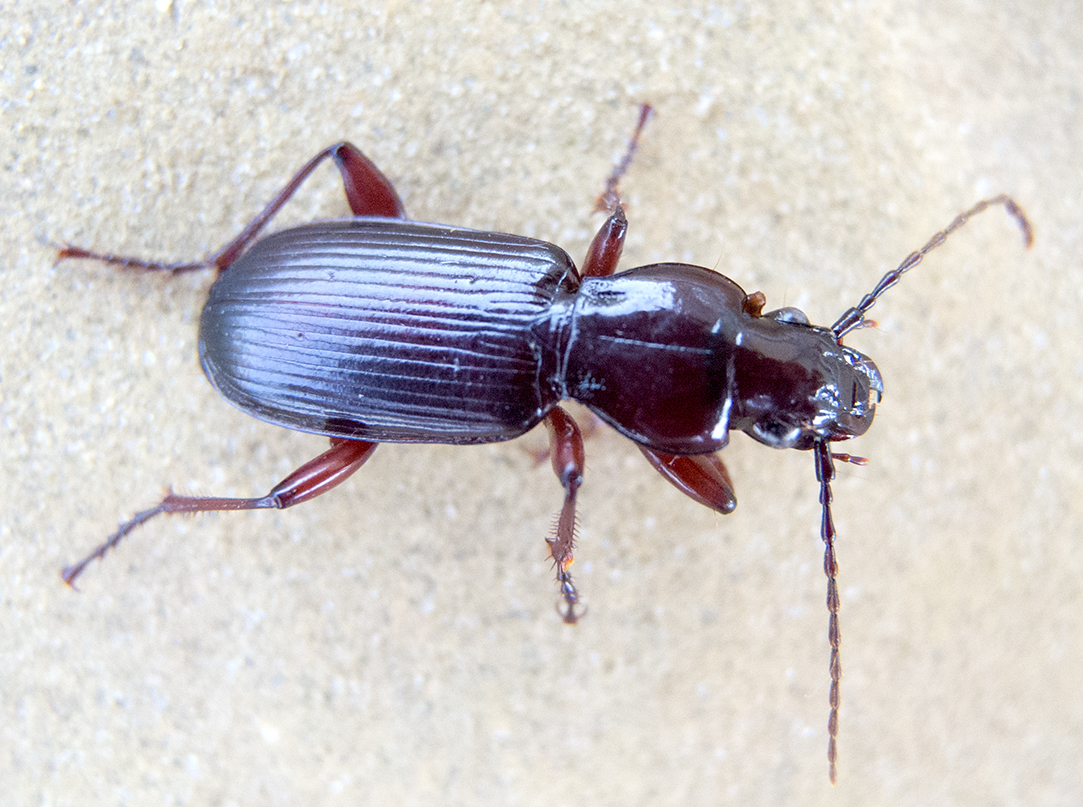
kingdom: Animalia
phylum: Arthropoda
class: Insecta
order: Coleoptera
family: Carabidae
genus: Pterostichus
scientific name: Pterostichus macer
